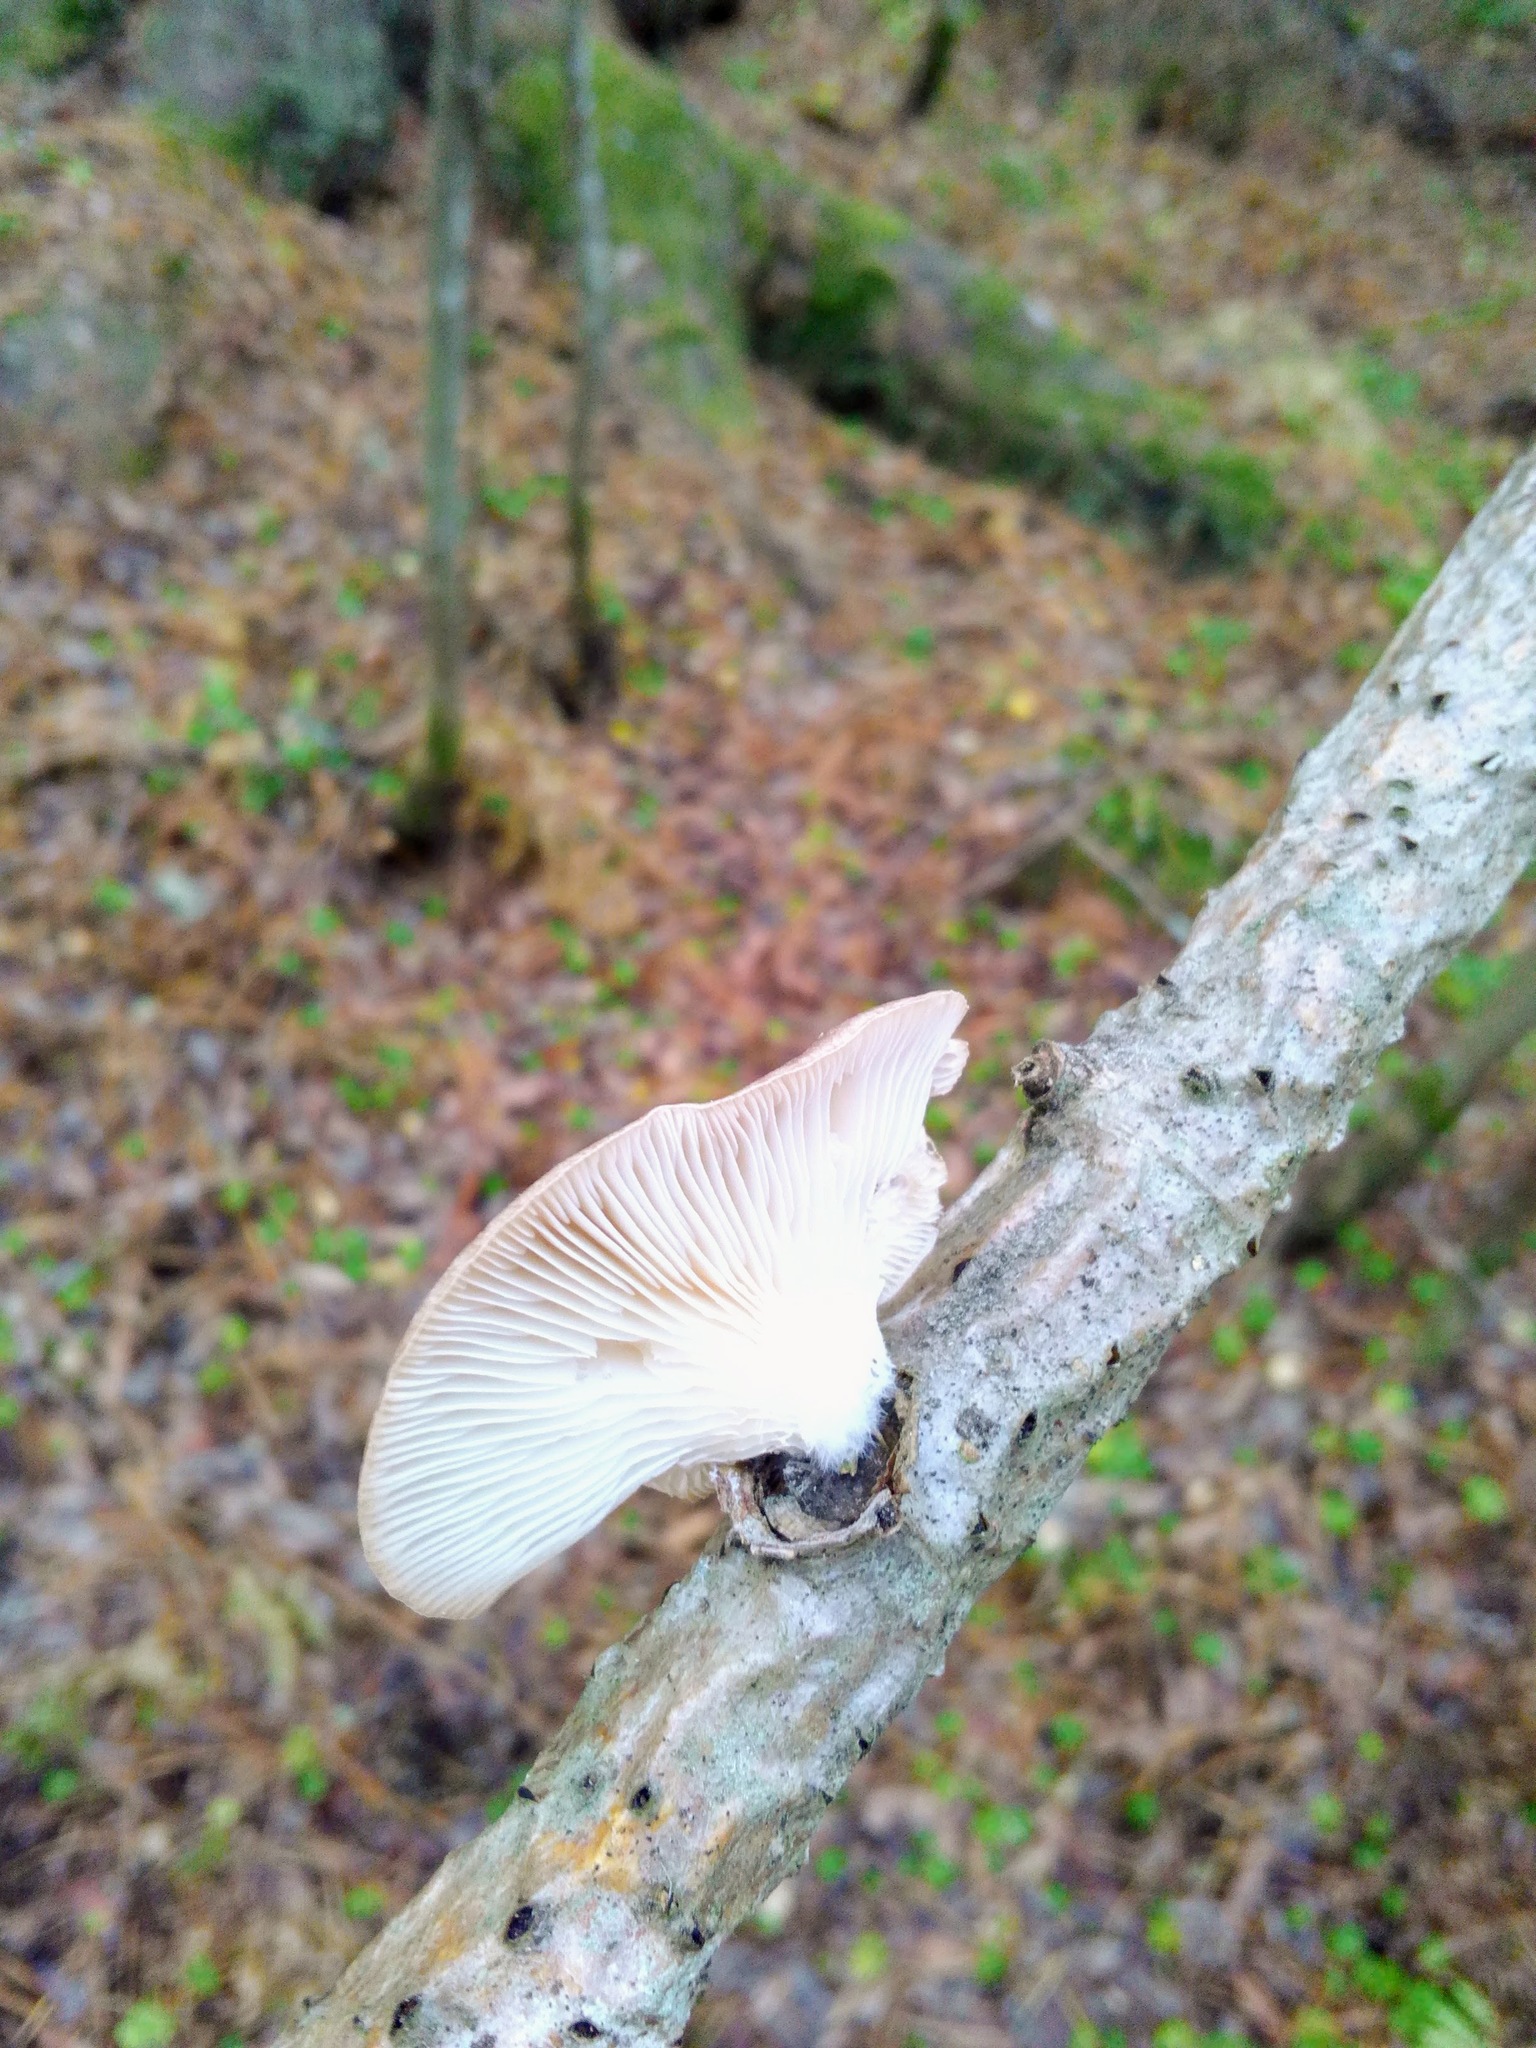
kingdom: Fungi
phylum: Basidiomycota
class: Agaricomycetes
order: Agaricales
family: Pleurotaceae
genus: Pleurotus
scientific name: Pleurotus pulmonarius
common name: Pale oyster
